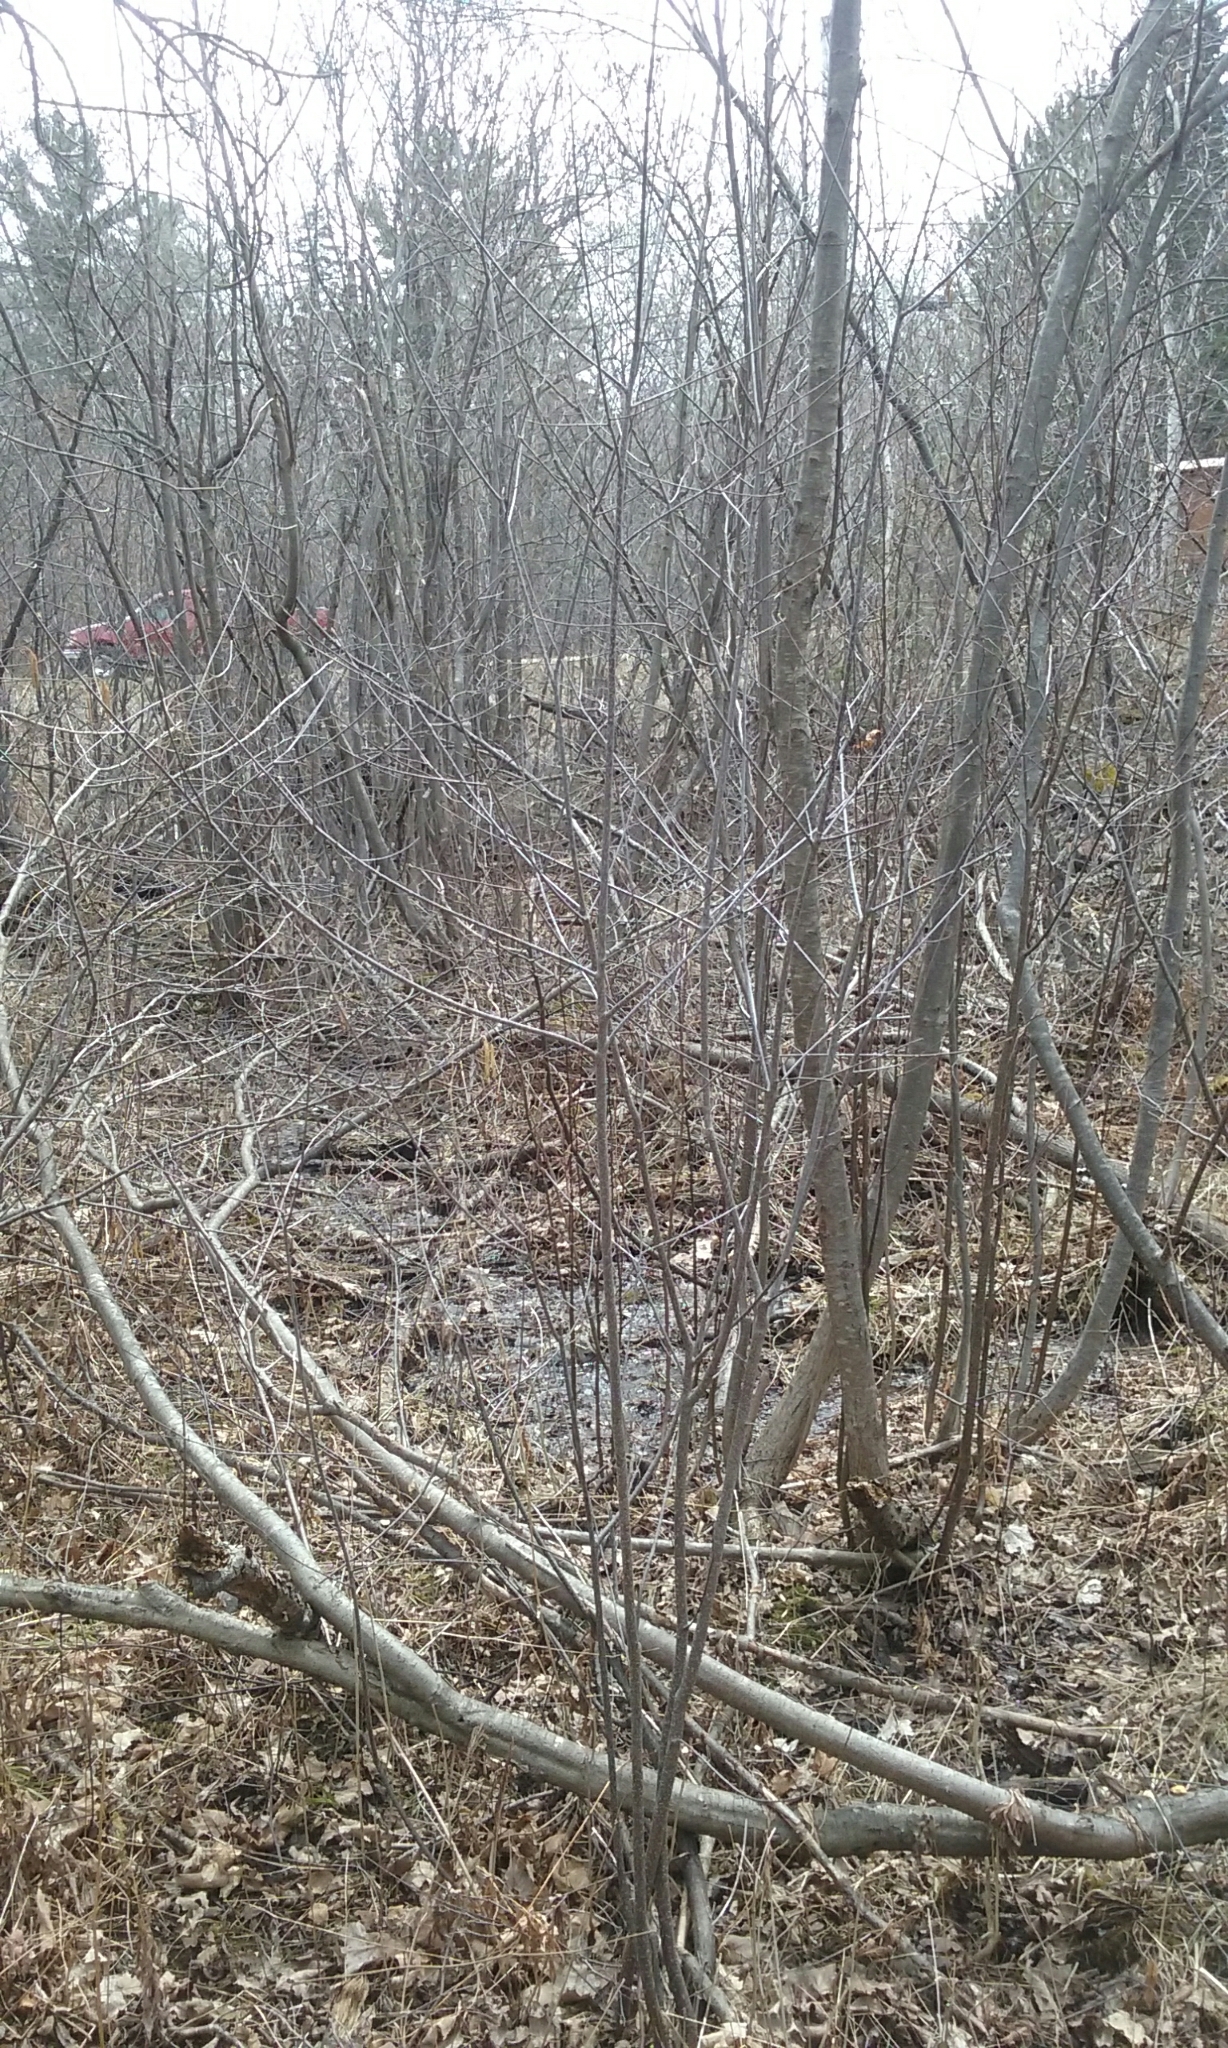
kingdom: Plantae
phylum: Tracheophyta
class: Magnoliopsida
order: Rosales
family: Rhamnaceae
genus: Frangula
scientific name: Frangula alnus
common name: Alder buckthorn
